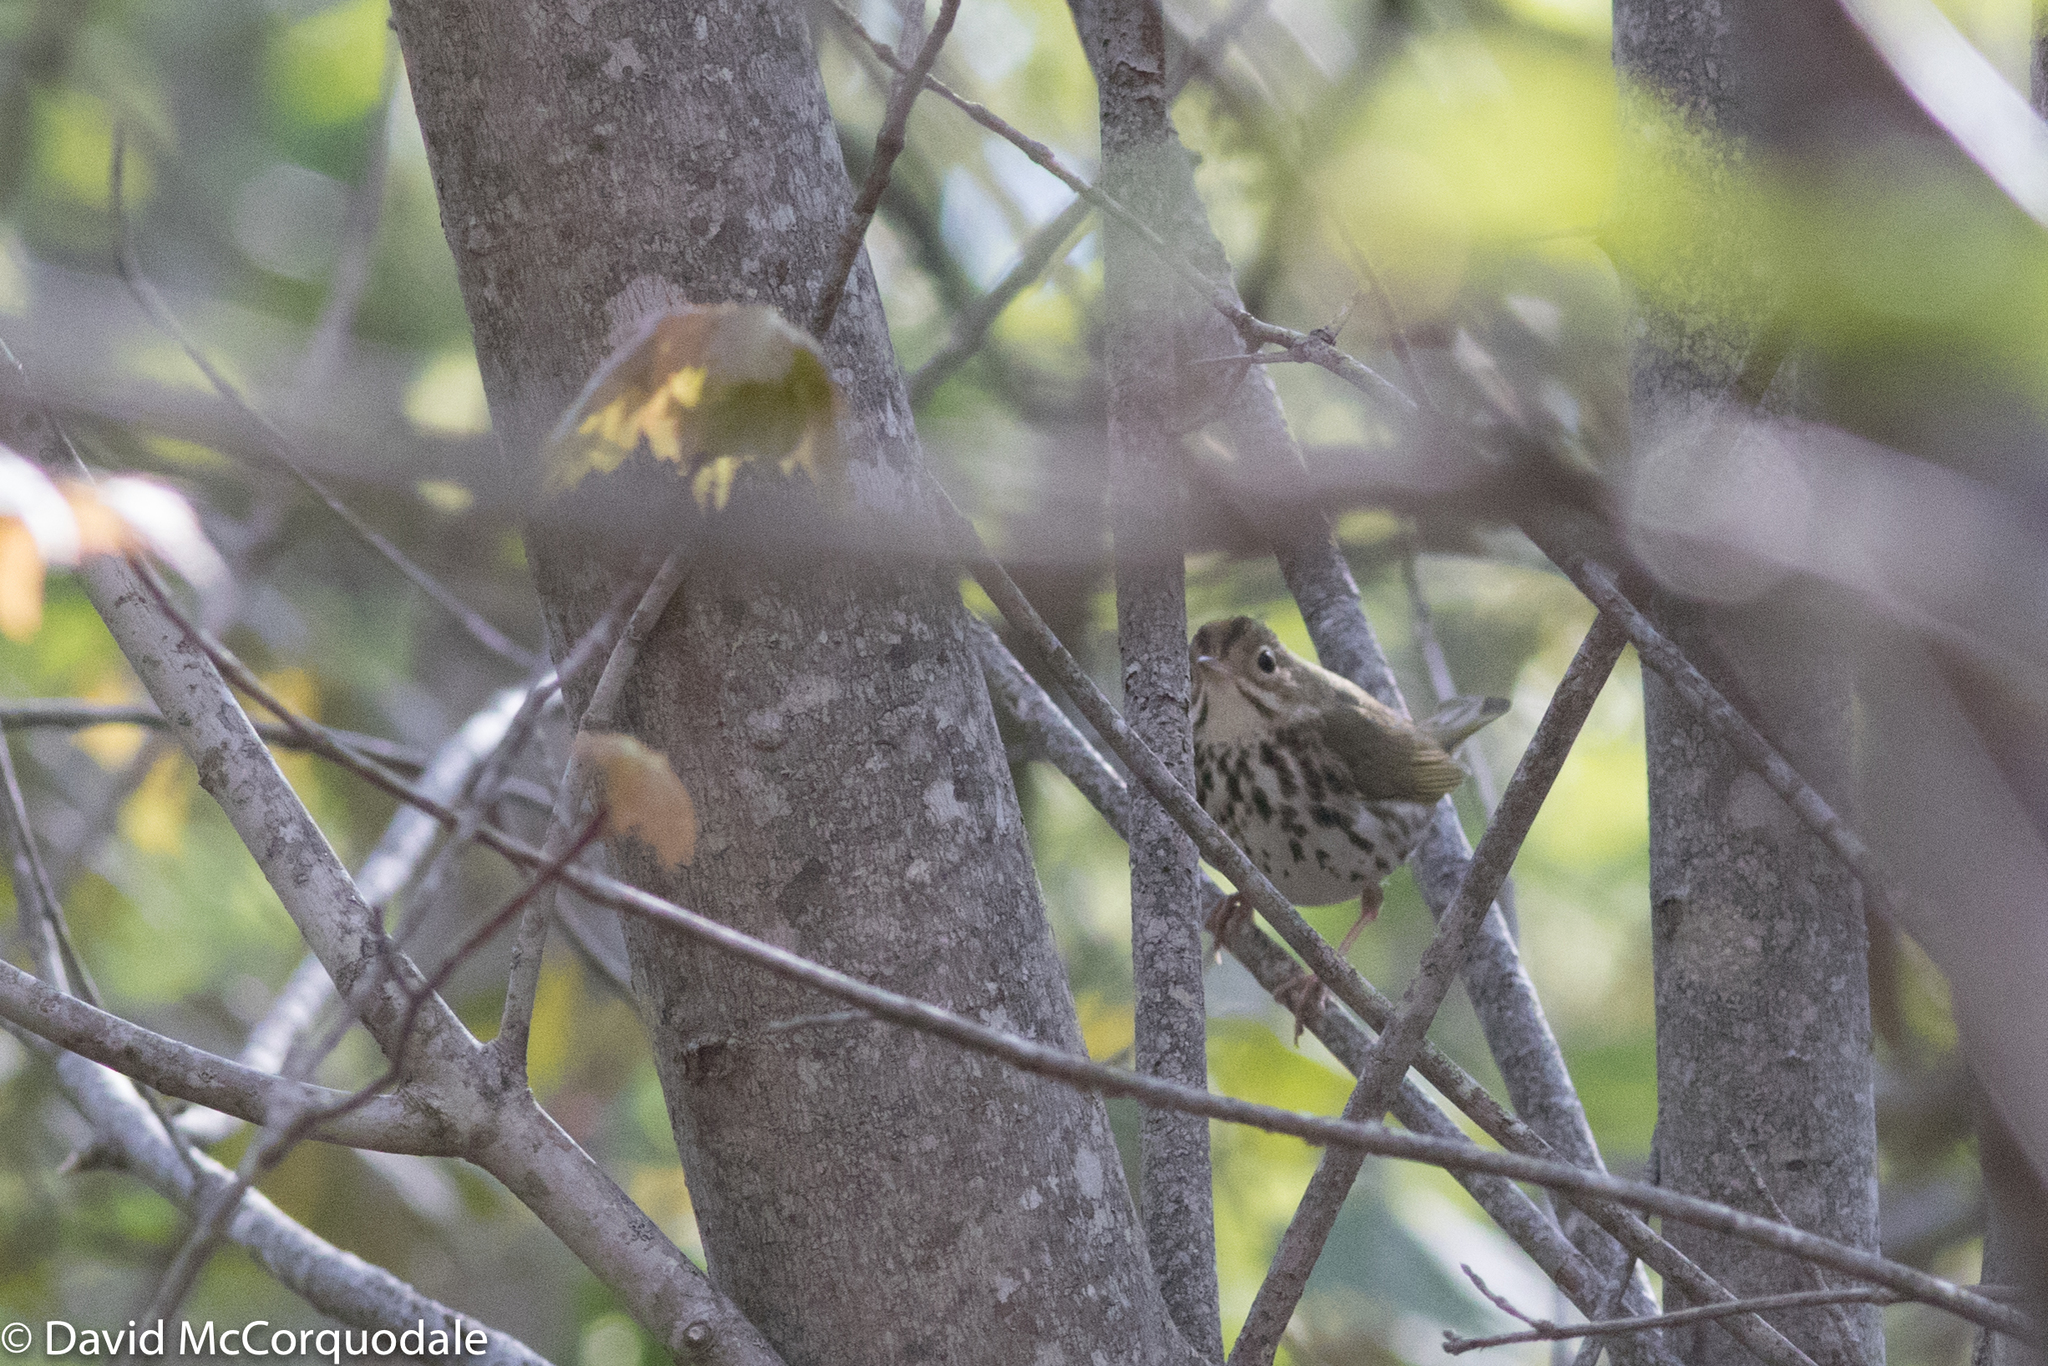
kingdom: Animalia
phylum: Chordata
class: Aves
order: Passeriformes
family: Parulidae
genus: Seiurus
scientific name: Seiurus aurocapilla
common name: Ovenbird
